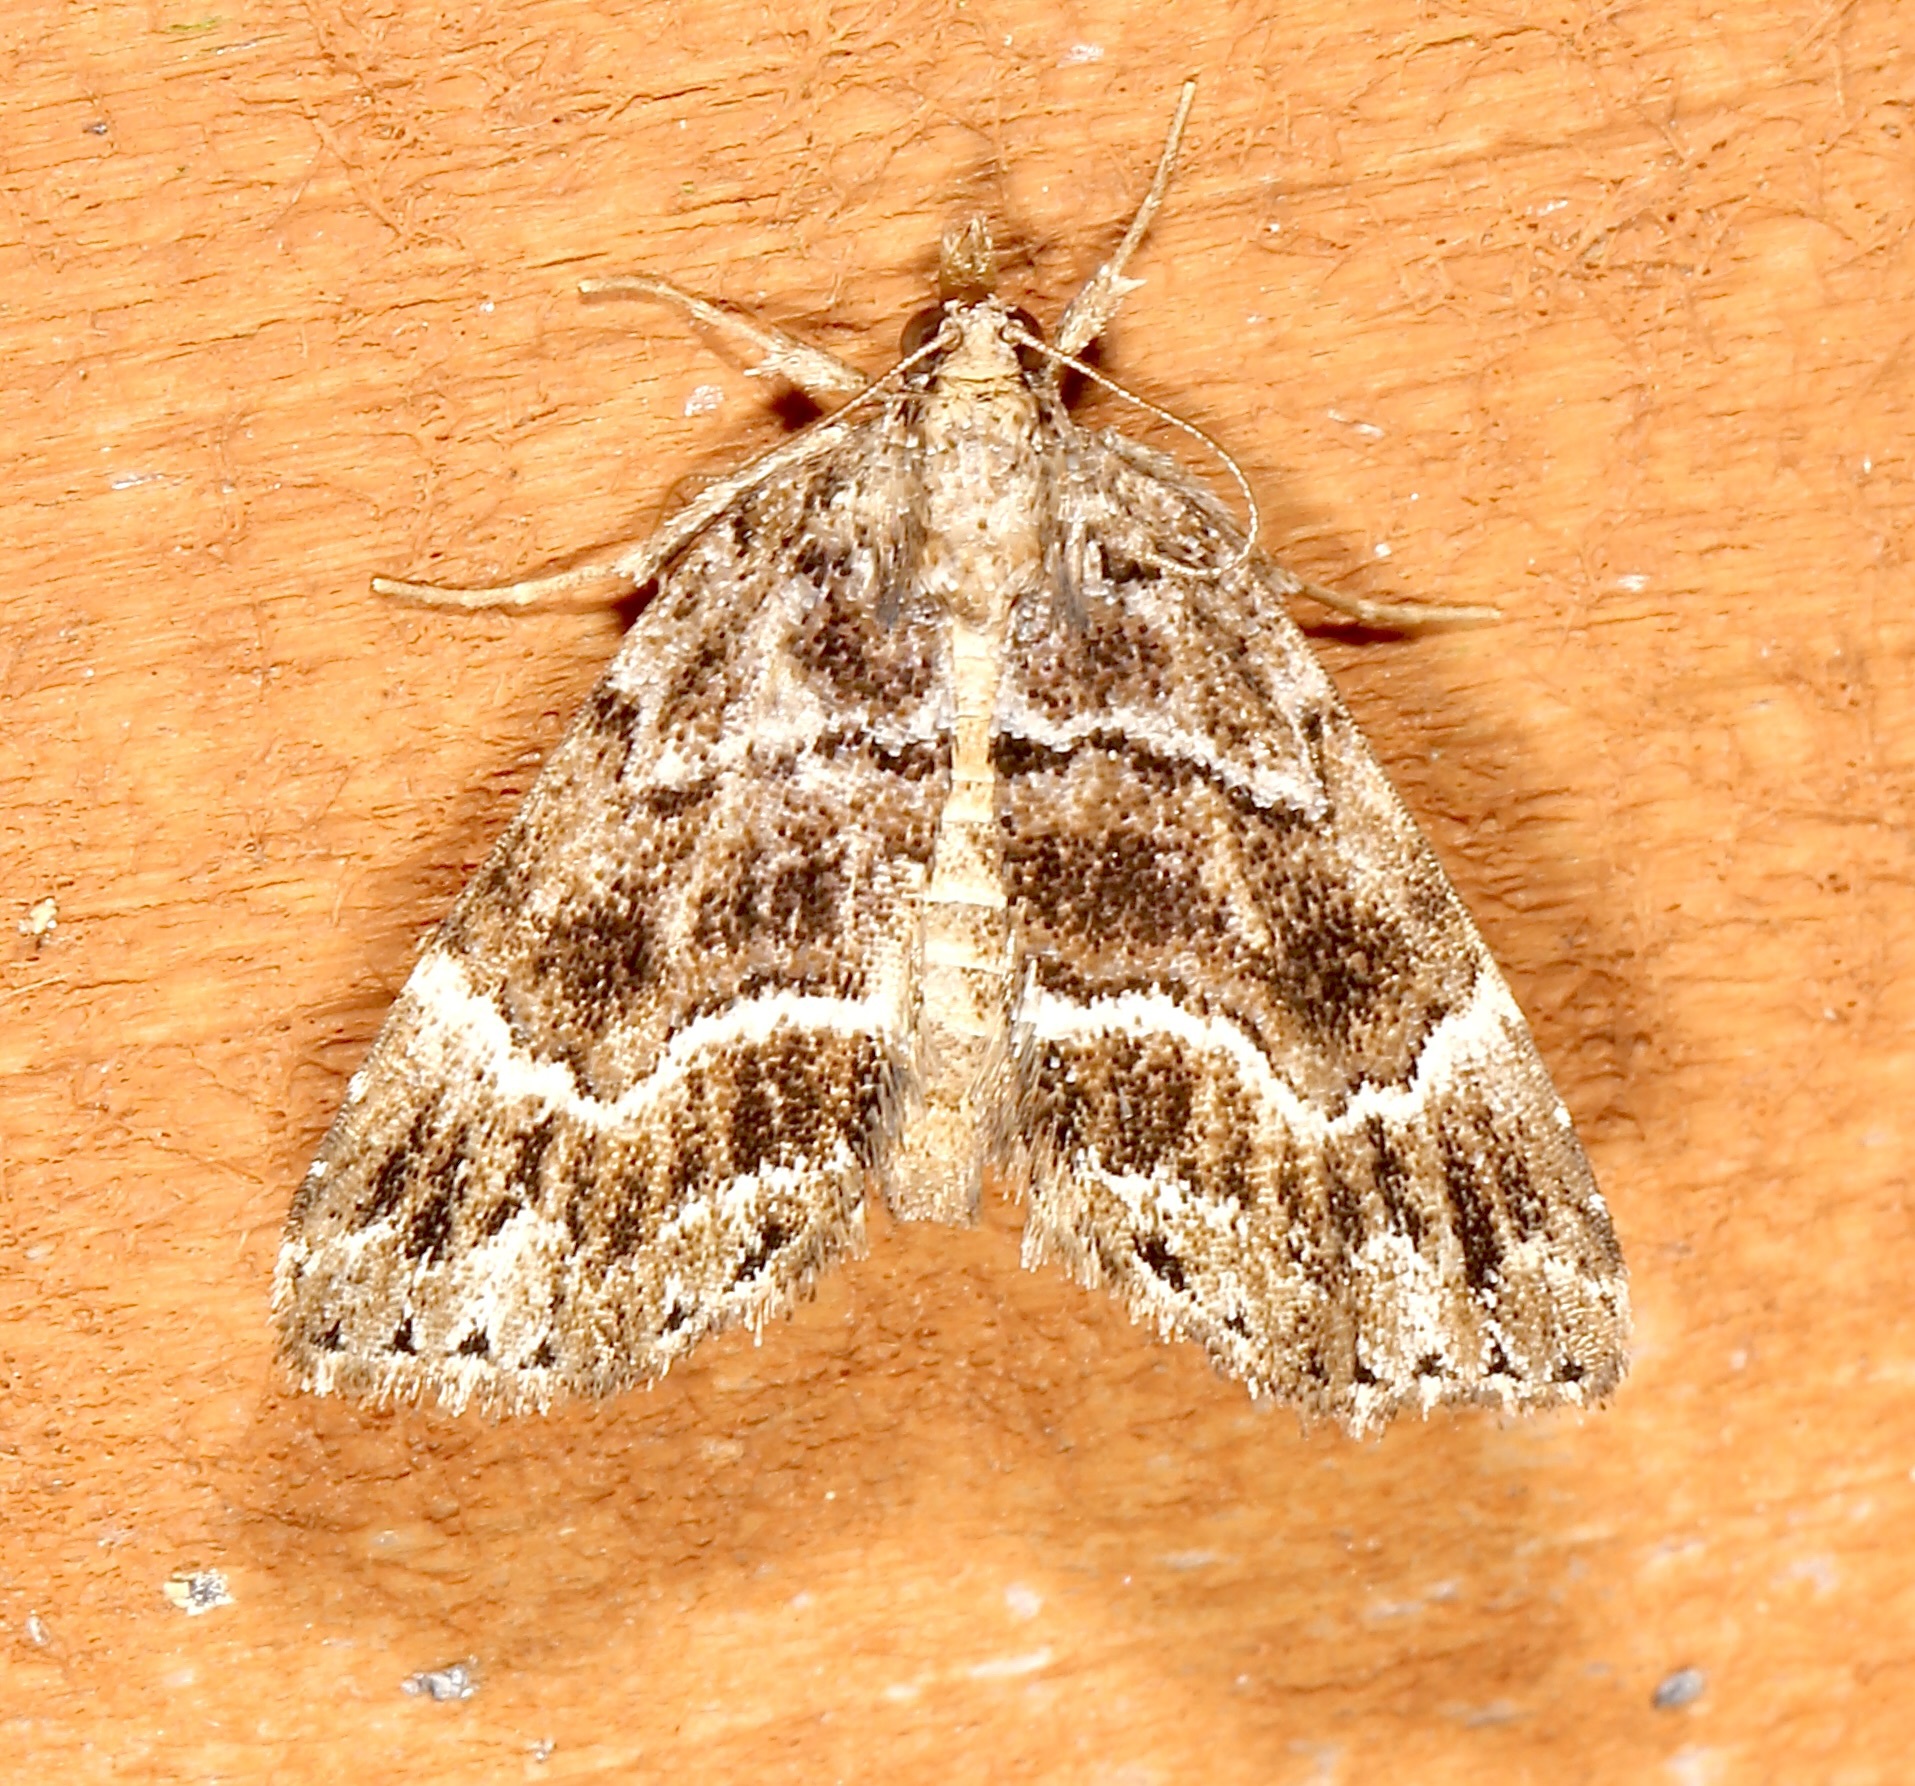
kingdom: Animalia
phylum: Arthropoda
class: Insecta
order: Lepidoptera
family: Erebidae
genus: Cutina
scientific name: Cutina arcuata
